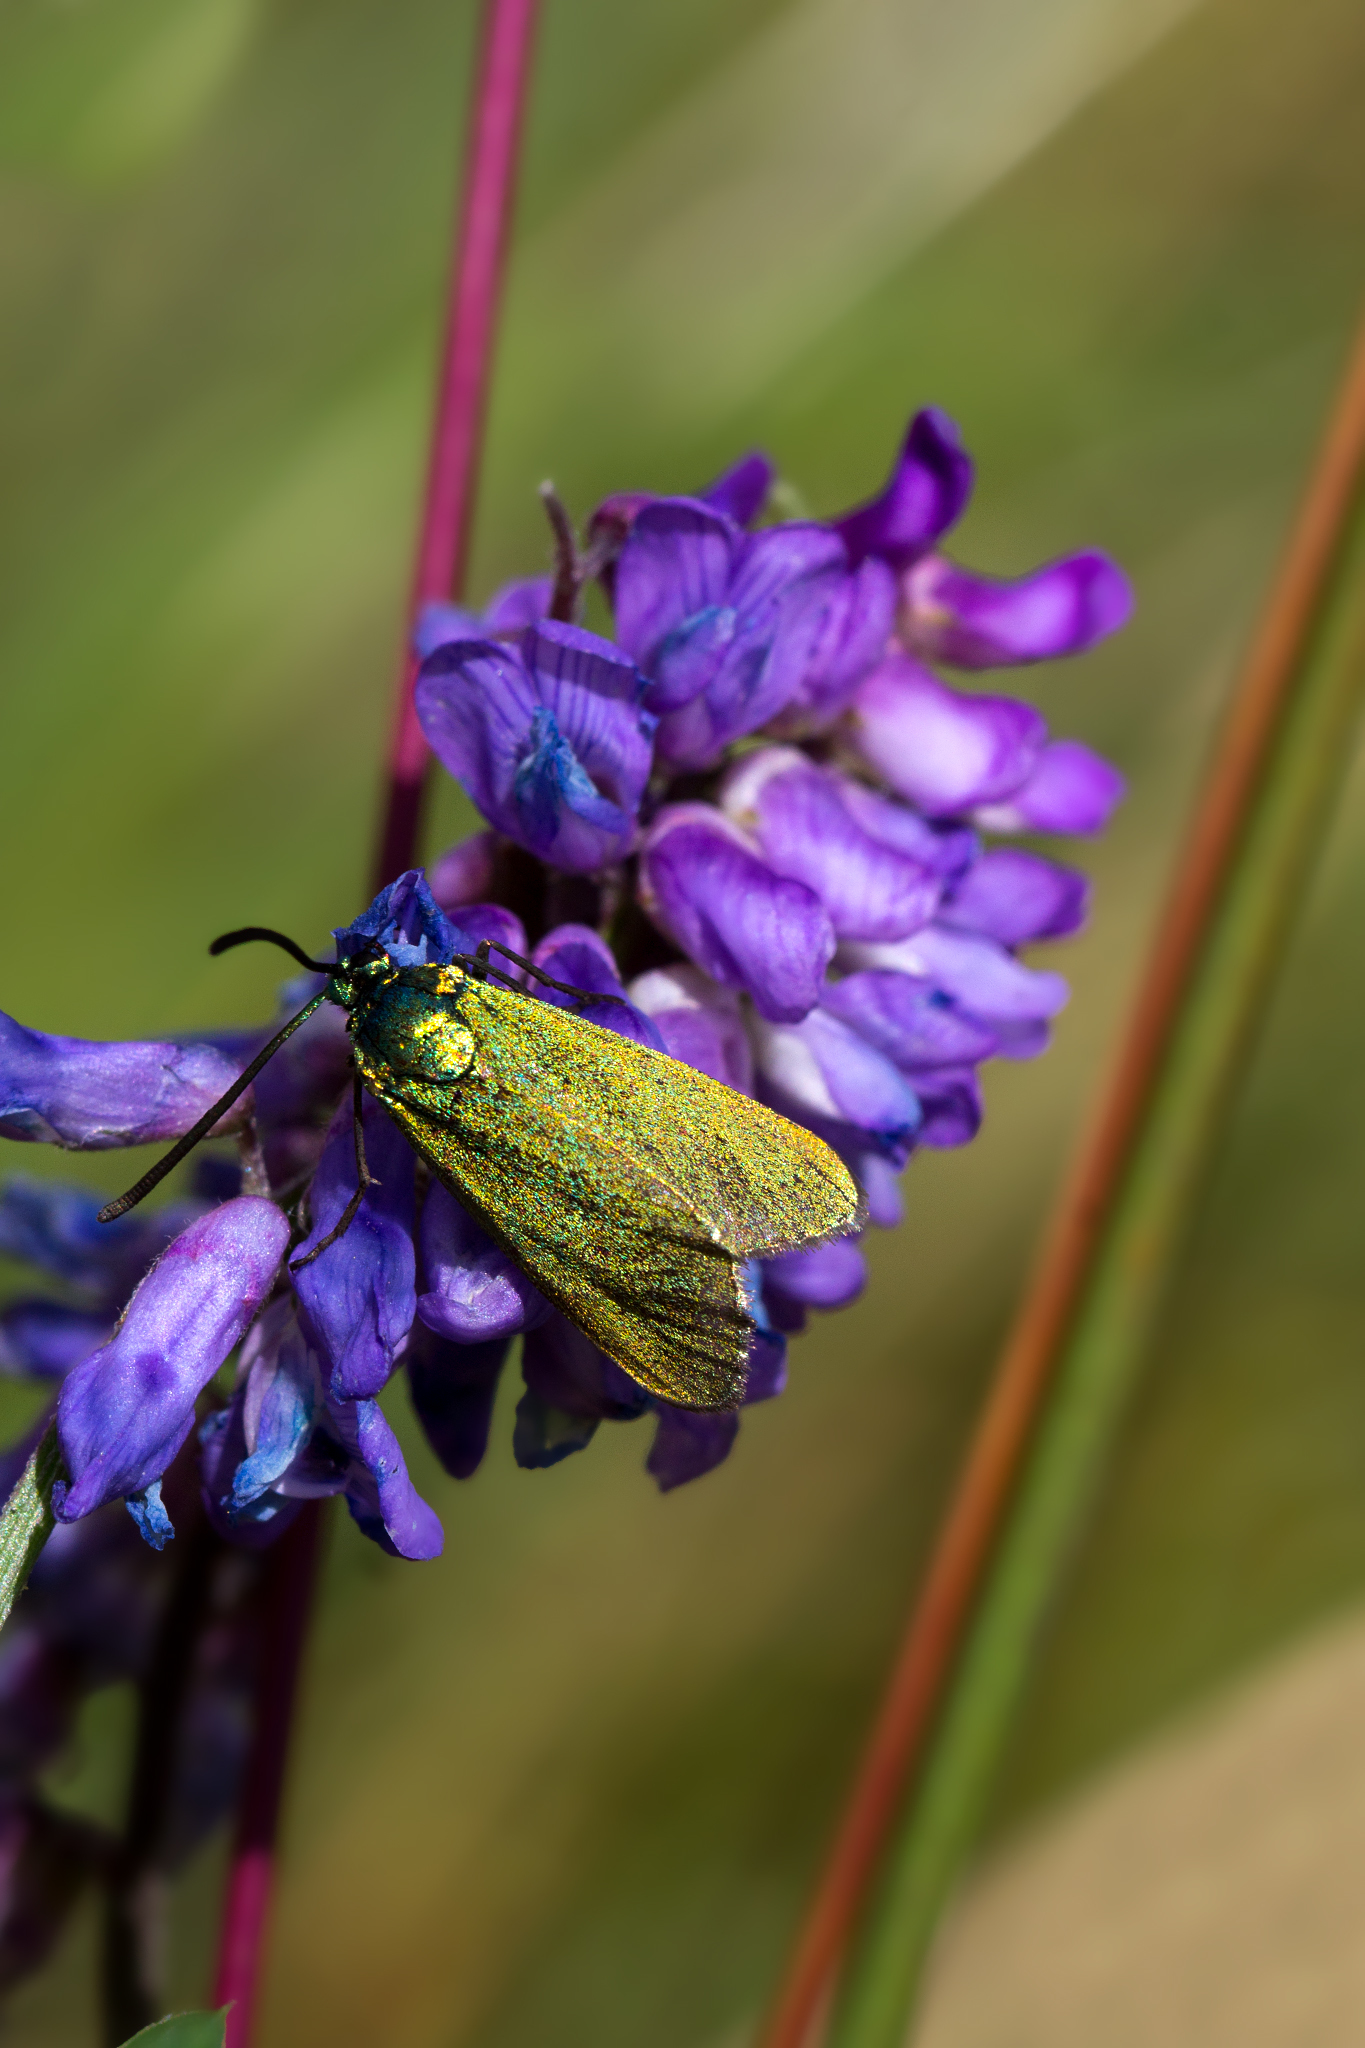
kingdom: Animalia
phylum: Arthropoda
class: Insecta
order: Lepidoptera
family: Zygaenidae
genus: Adscita
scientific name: Adscita statices
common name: Forester
